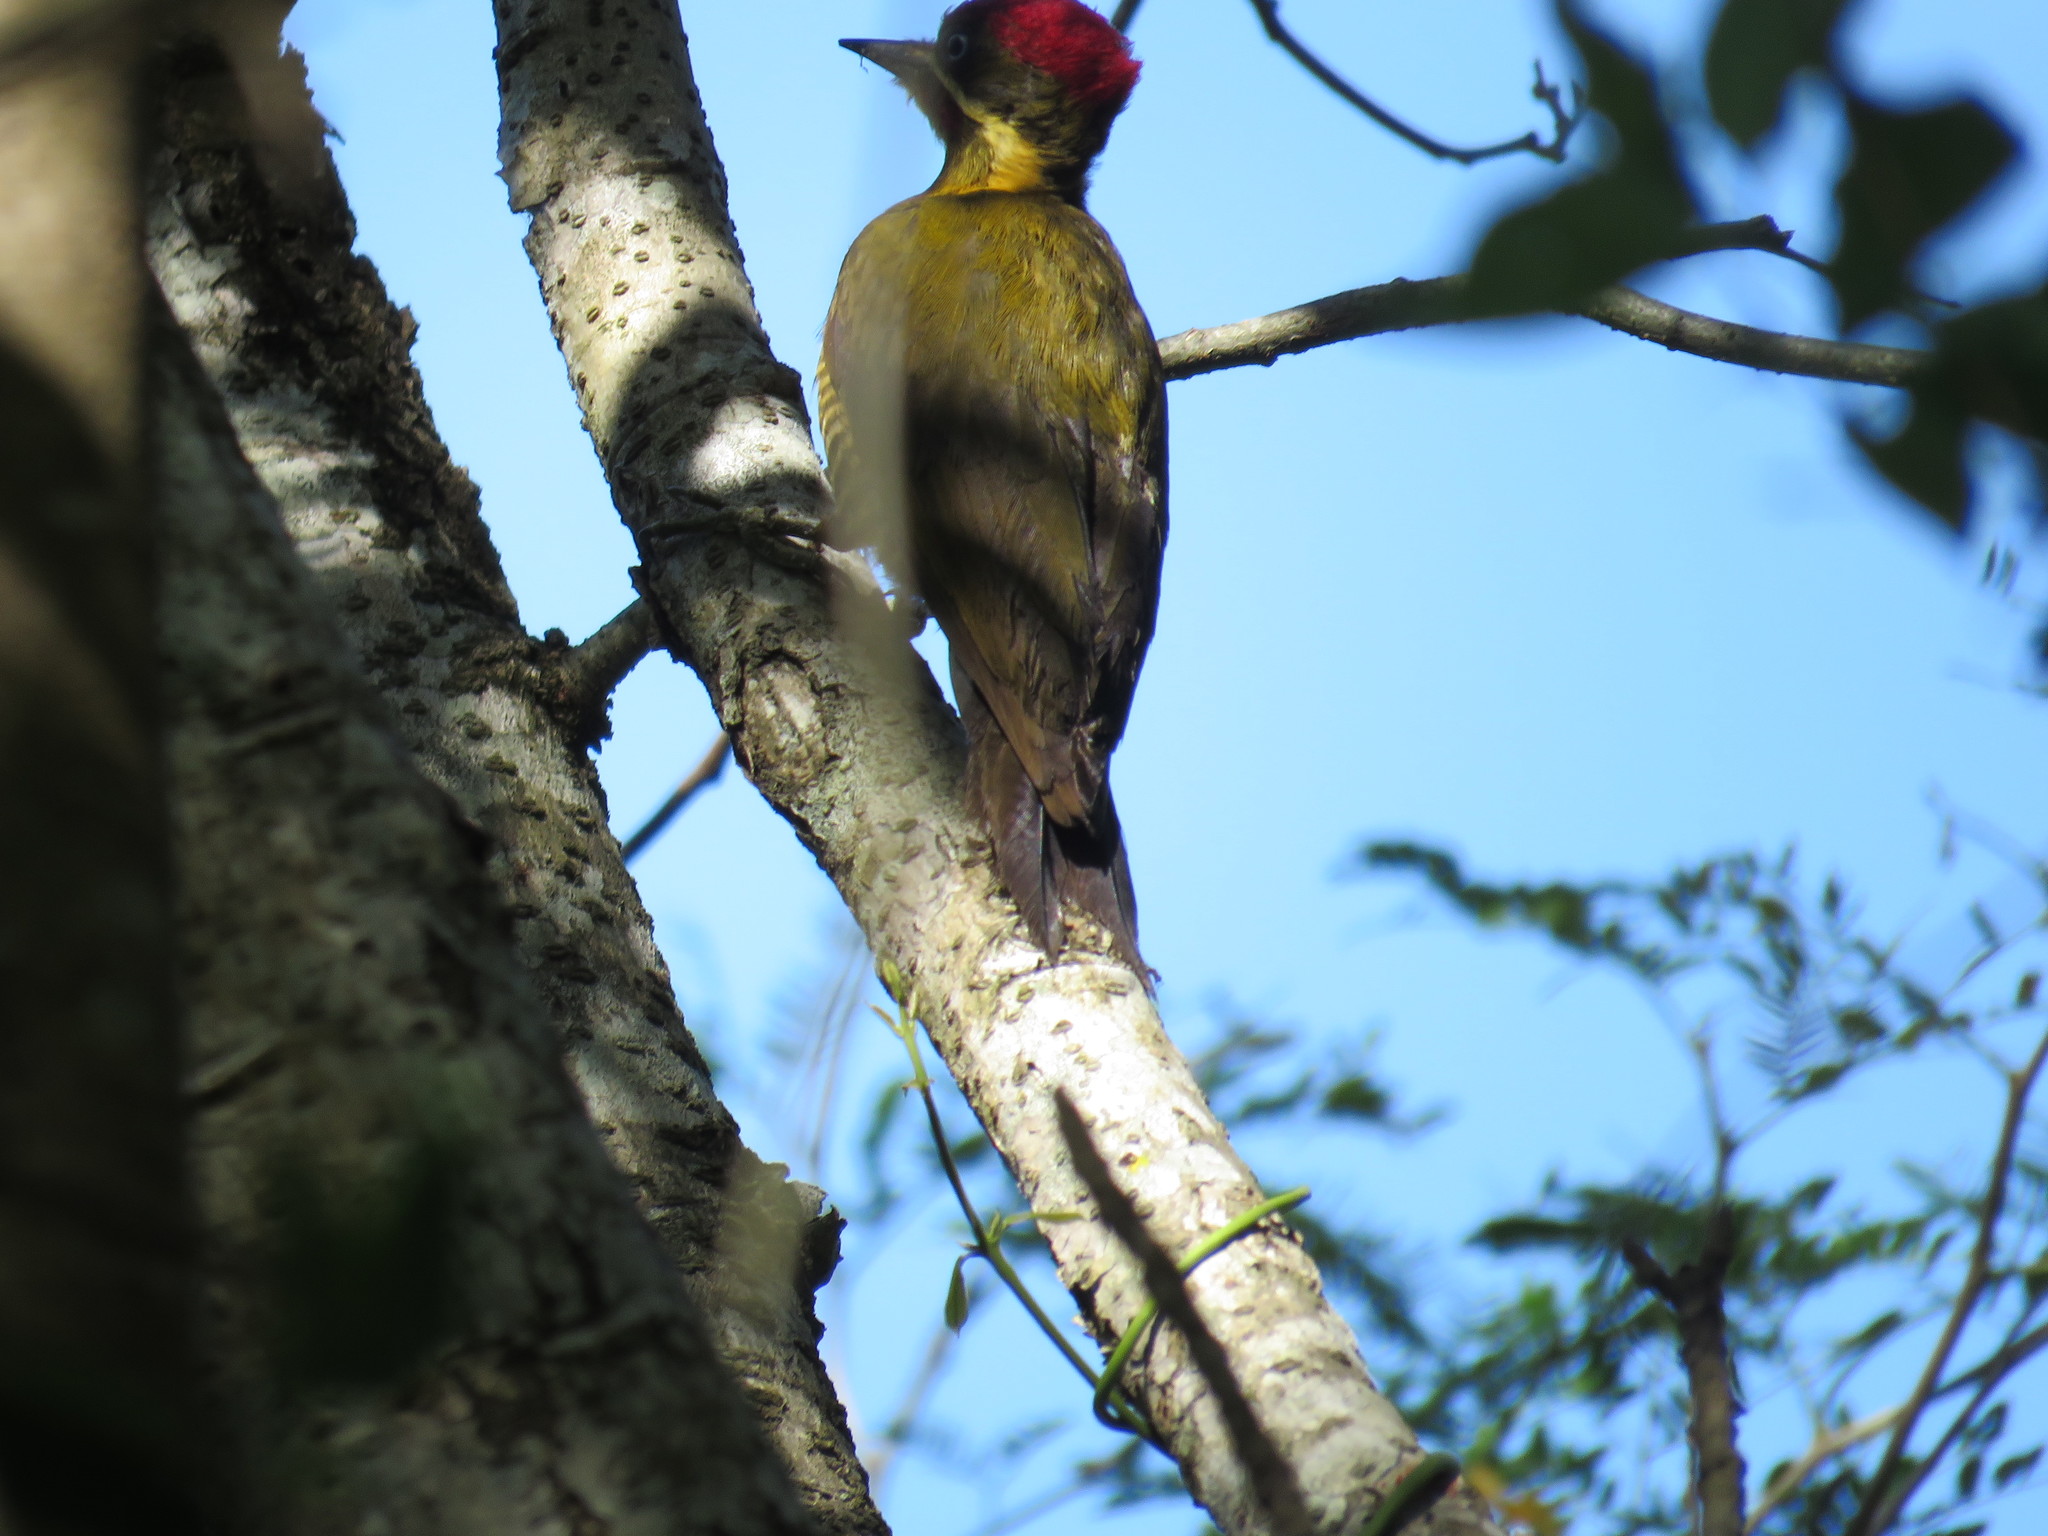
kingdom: Animalia
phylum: Chordata
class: Aves
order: Piciformes
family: Picidae
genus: Piculus
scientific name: Piculus chrysochloros
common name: Golden-green woodpecker
